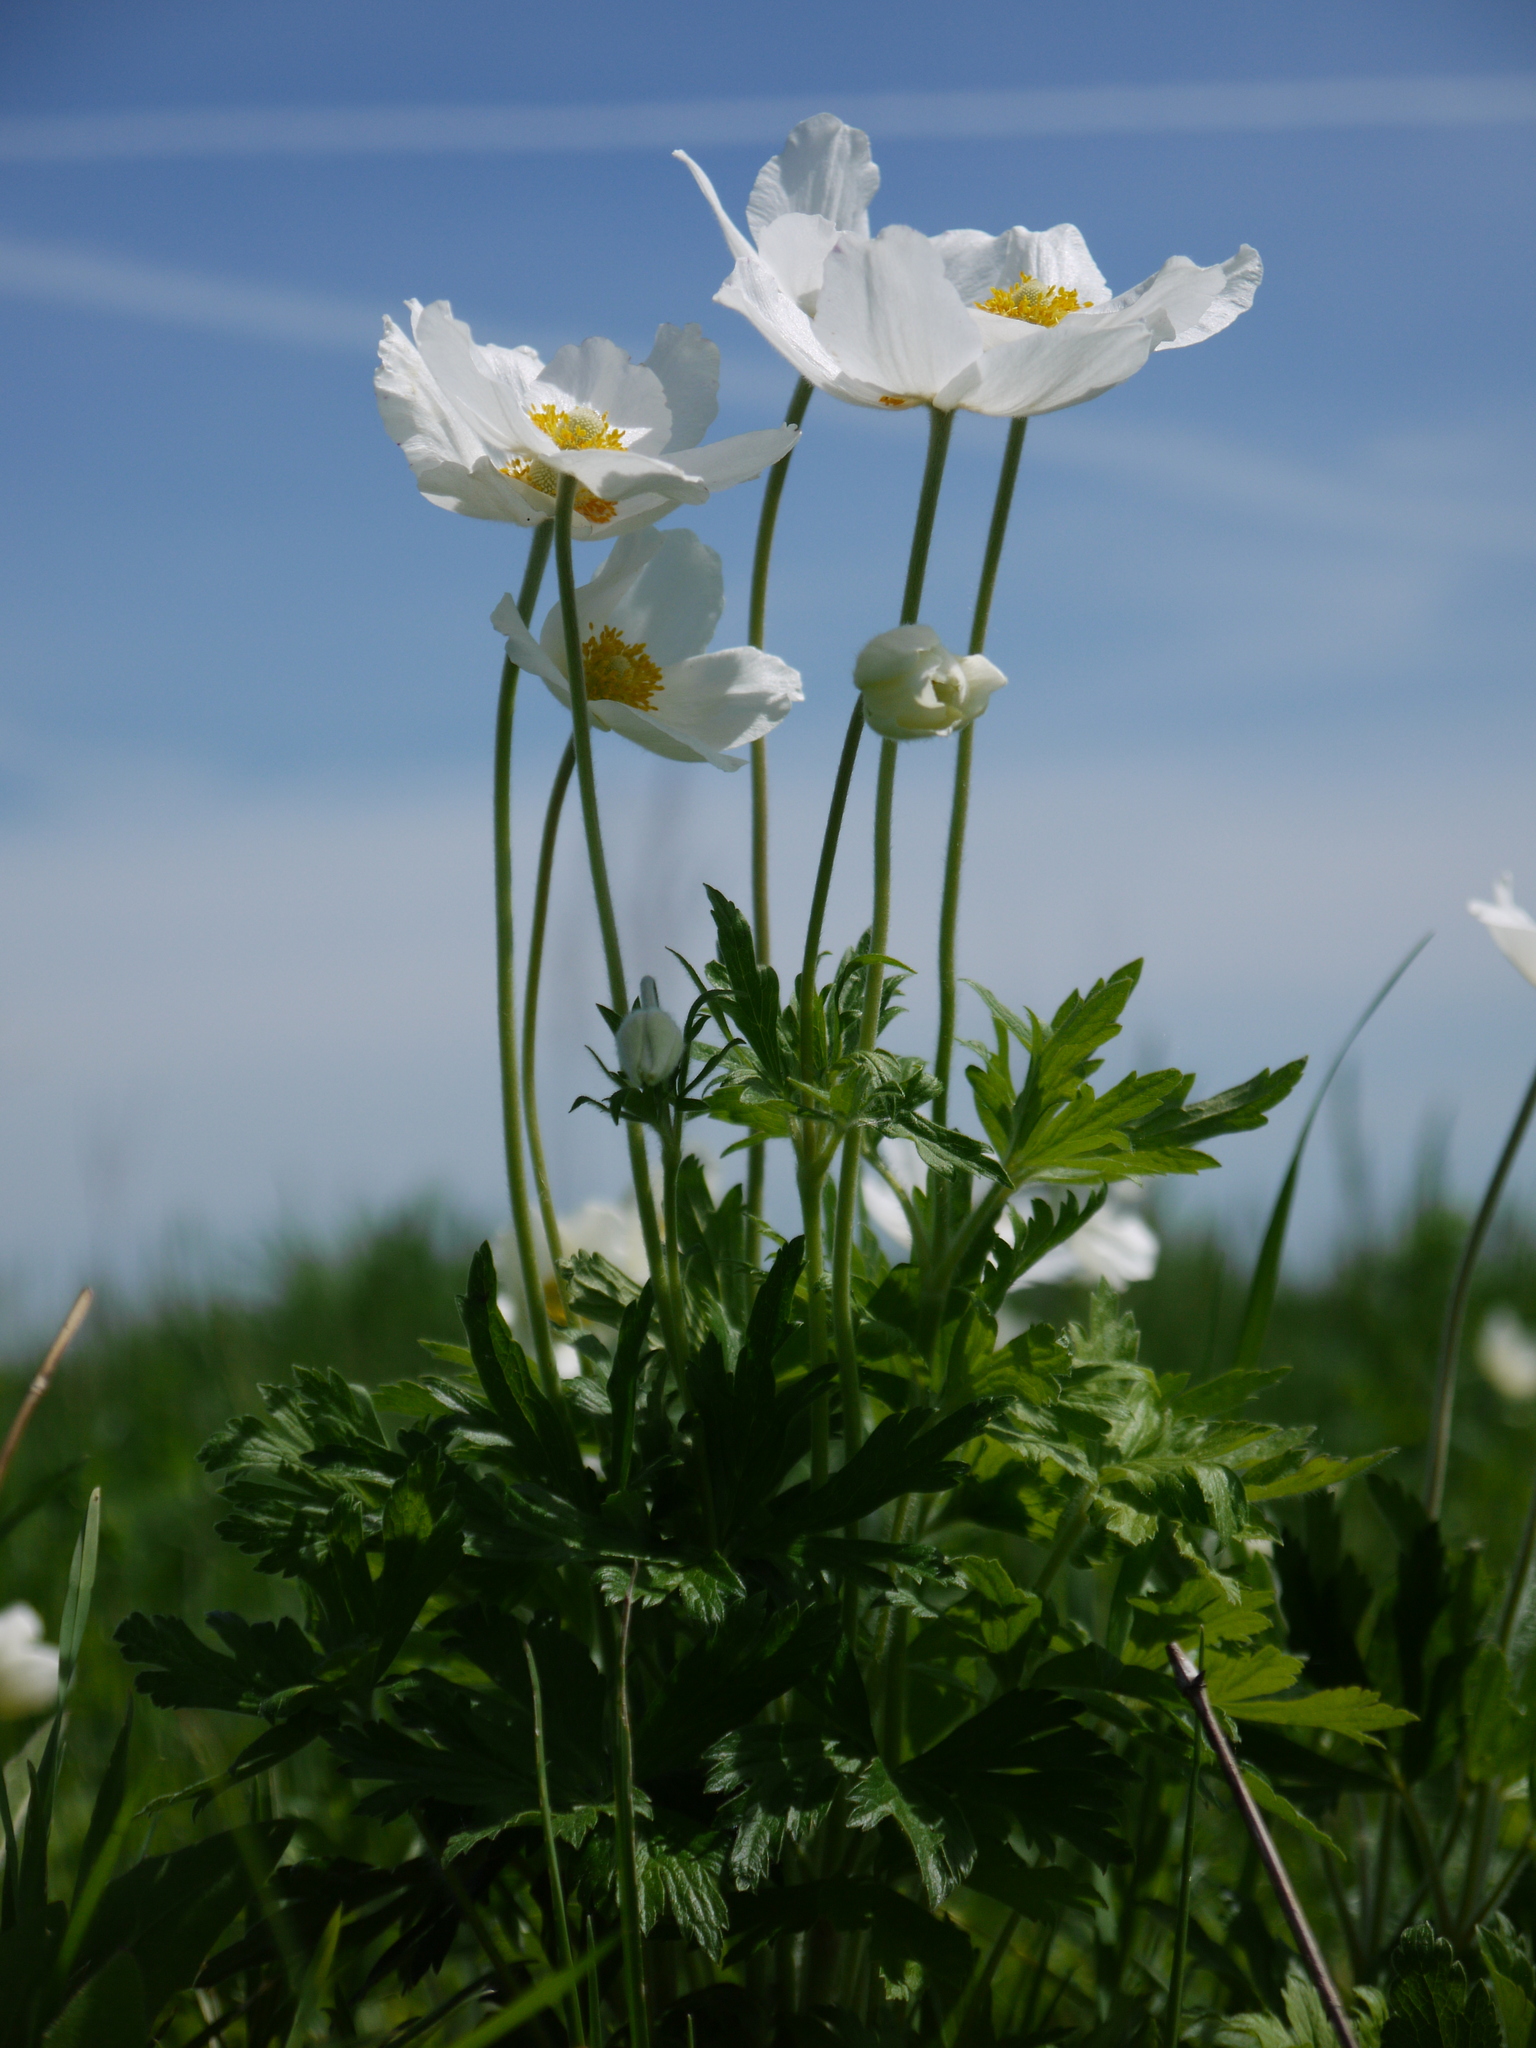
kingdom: Plantae
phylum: Tracheophyta
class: Magnoliopsida
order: Ranunculales
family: Ranunculaceae
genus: Anemone
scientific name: Anemone sylvestris
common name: Snowdrop anemone
